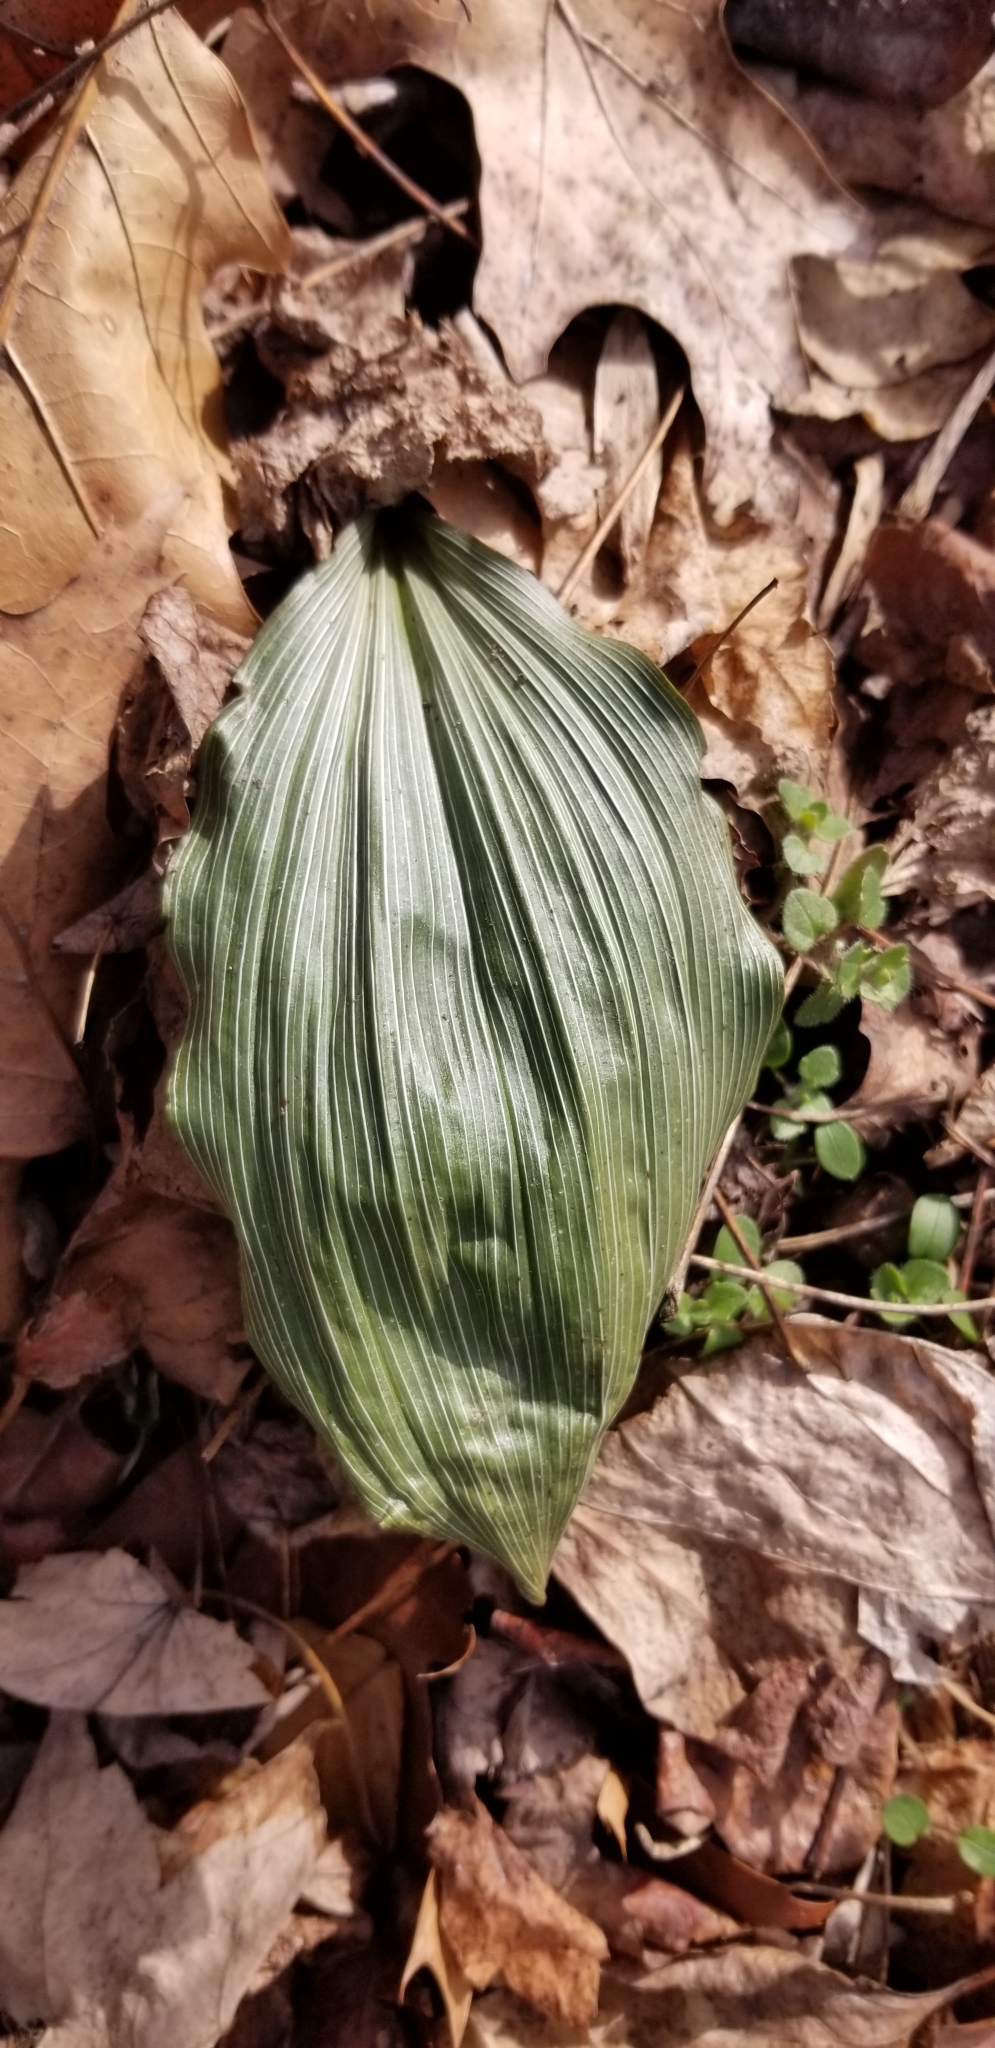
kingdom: Plantae
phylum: Tracheophyta
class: Liliopsida
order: Asparagales
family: Orchidaceae
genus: Aplectrum
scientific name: Aplectrum hyemale
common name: Adam-and-eve
